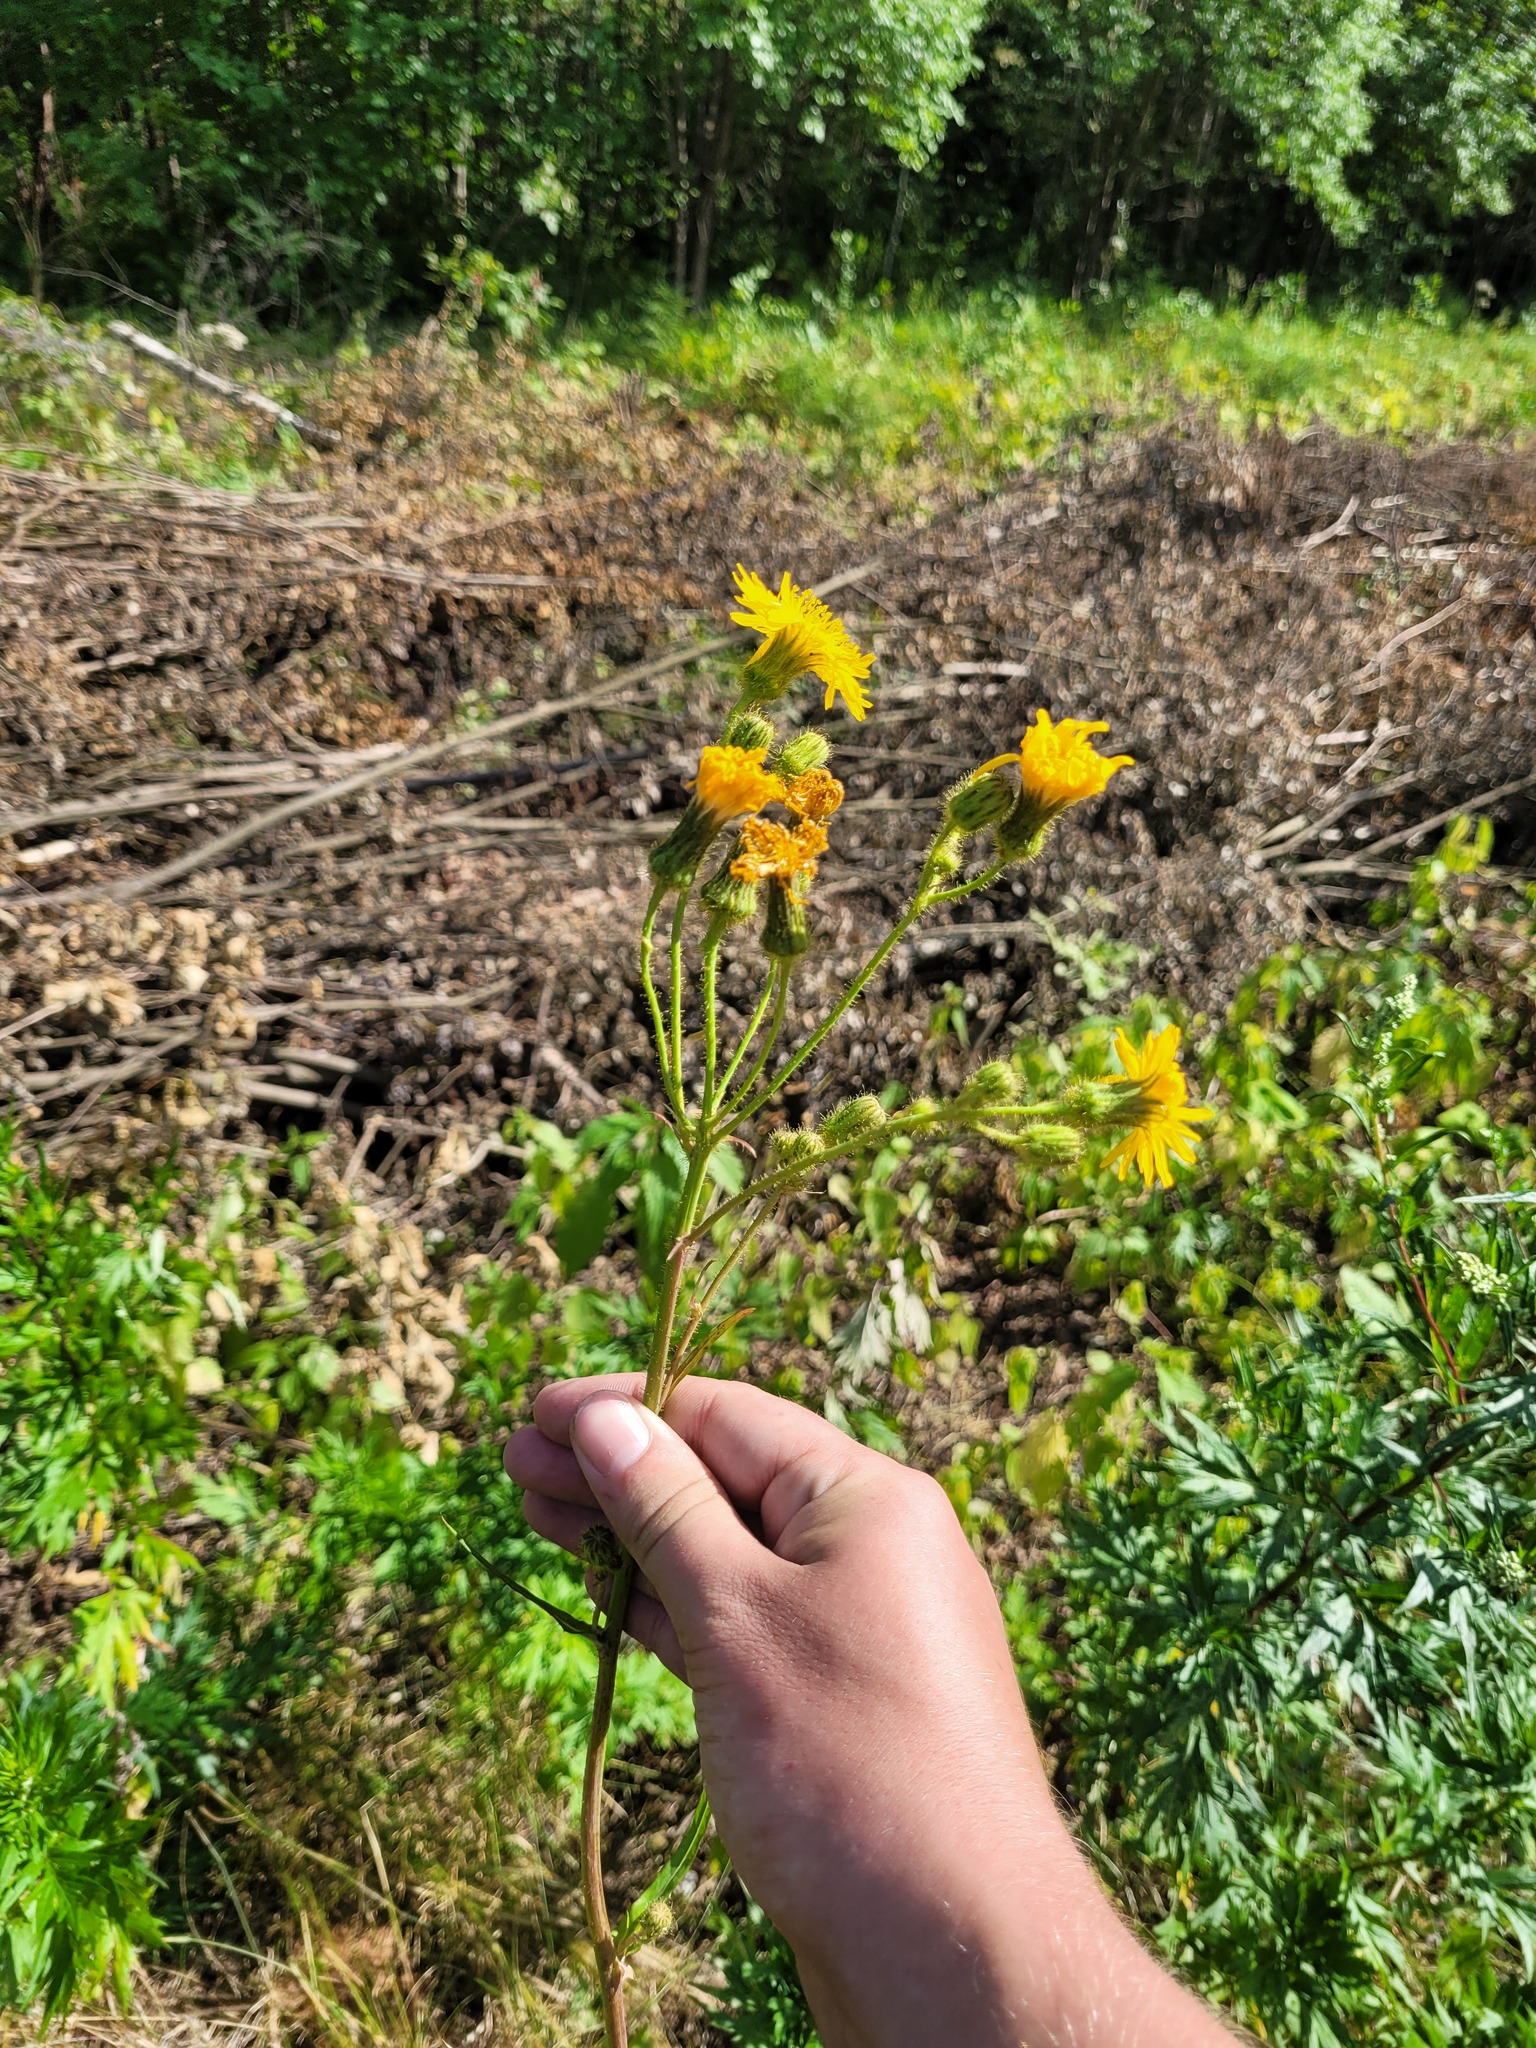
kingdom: Plantae
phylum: Tracheophyta
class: Magnoliopsida
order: Asterales
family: Asteraceae
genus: Sonchus
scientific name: Sonchus arvensis
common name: Perennial sow-thistle
